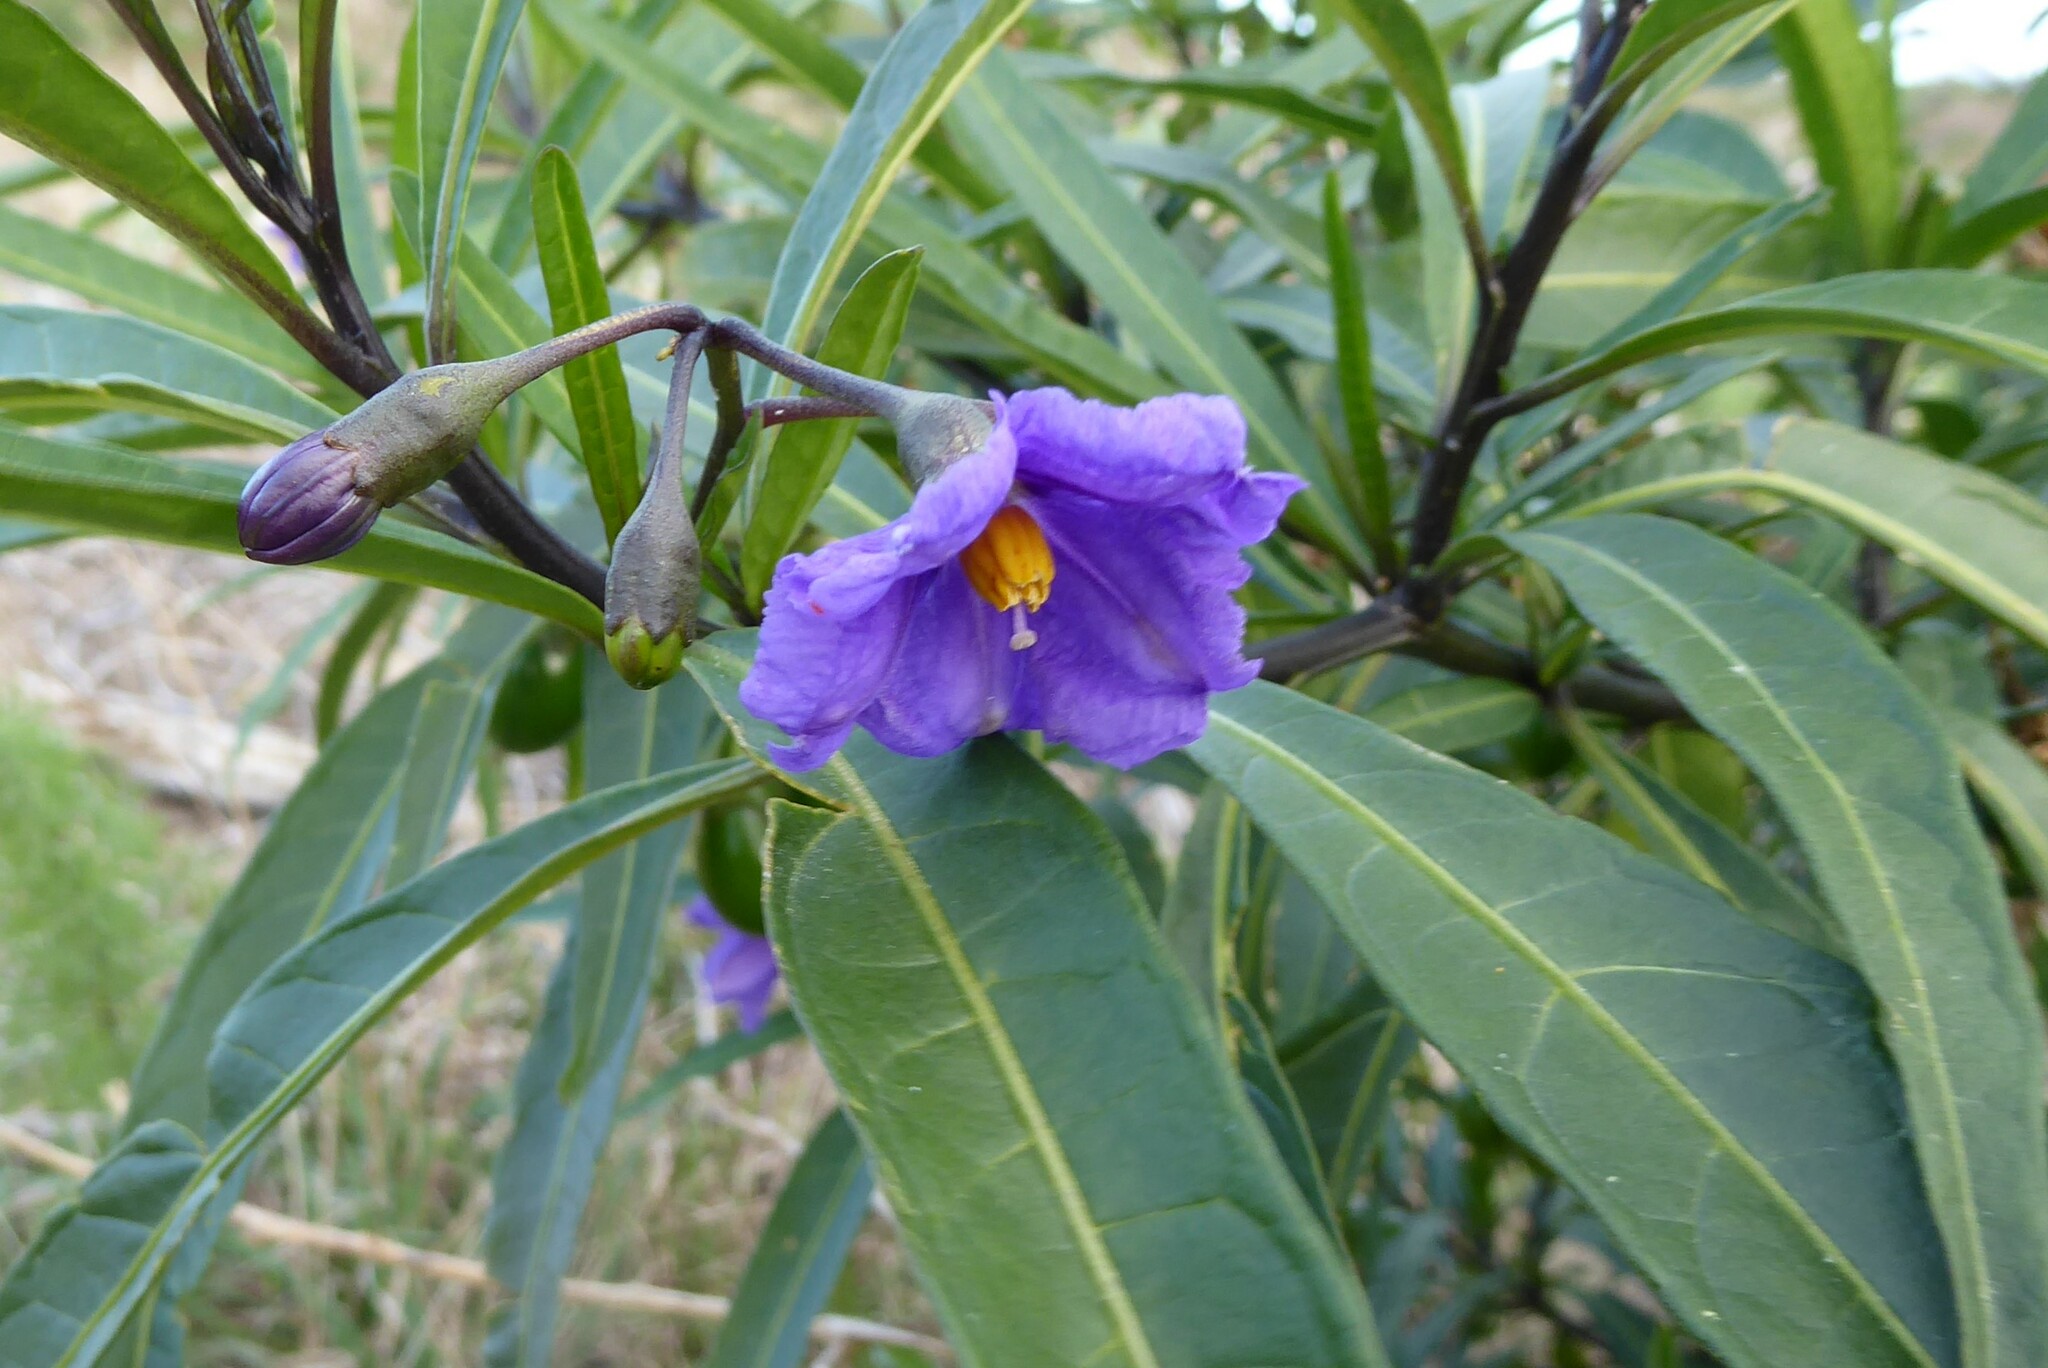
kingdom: Plantae
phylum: Tracheophyta
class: Magnoliopsida
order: Solanales
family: Solanaceae
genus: Solanum
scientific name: Solanum laciniatum
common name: Kangaroo-apple
